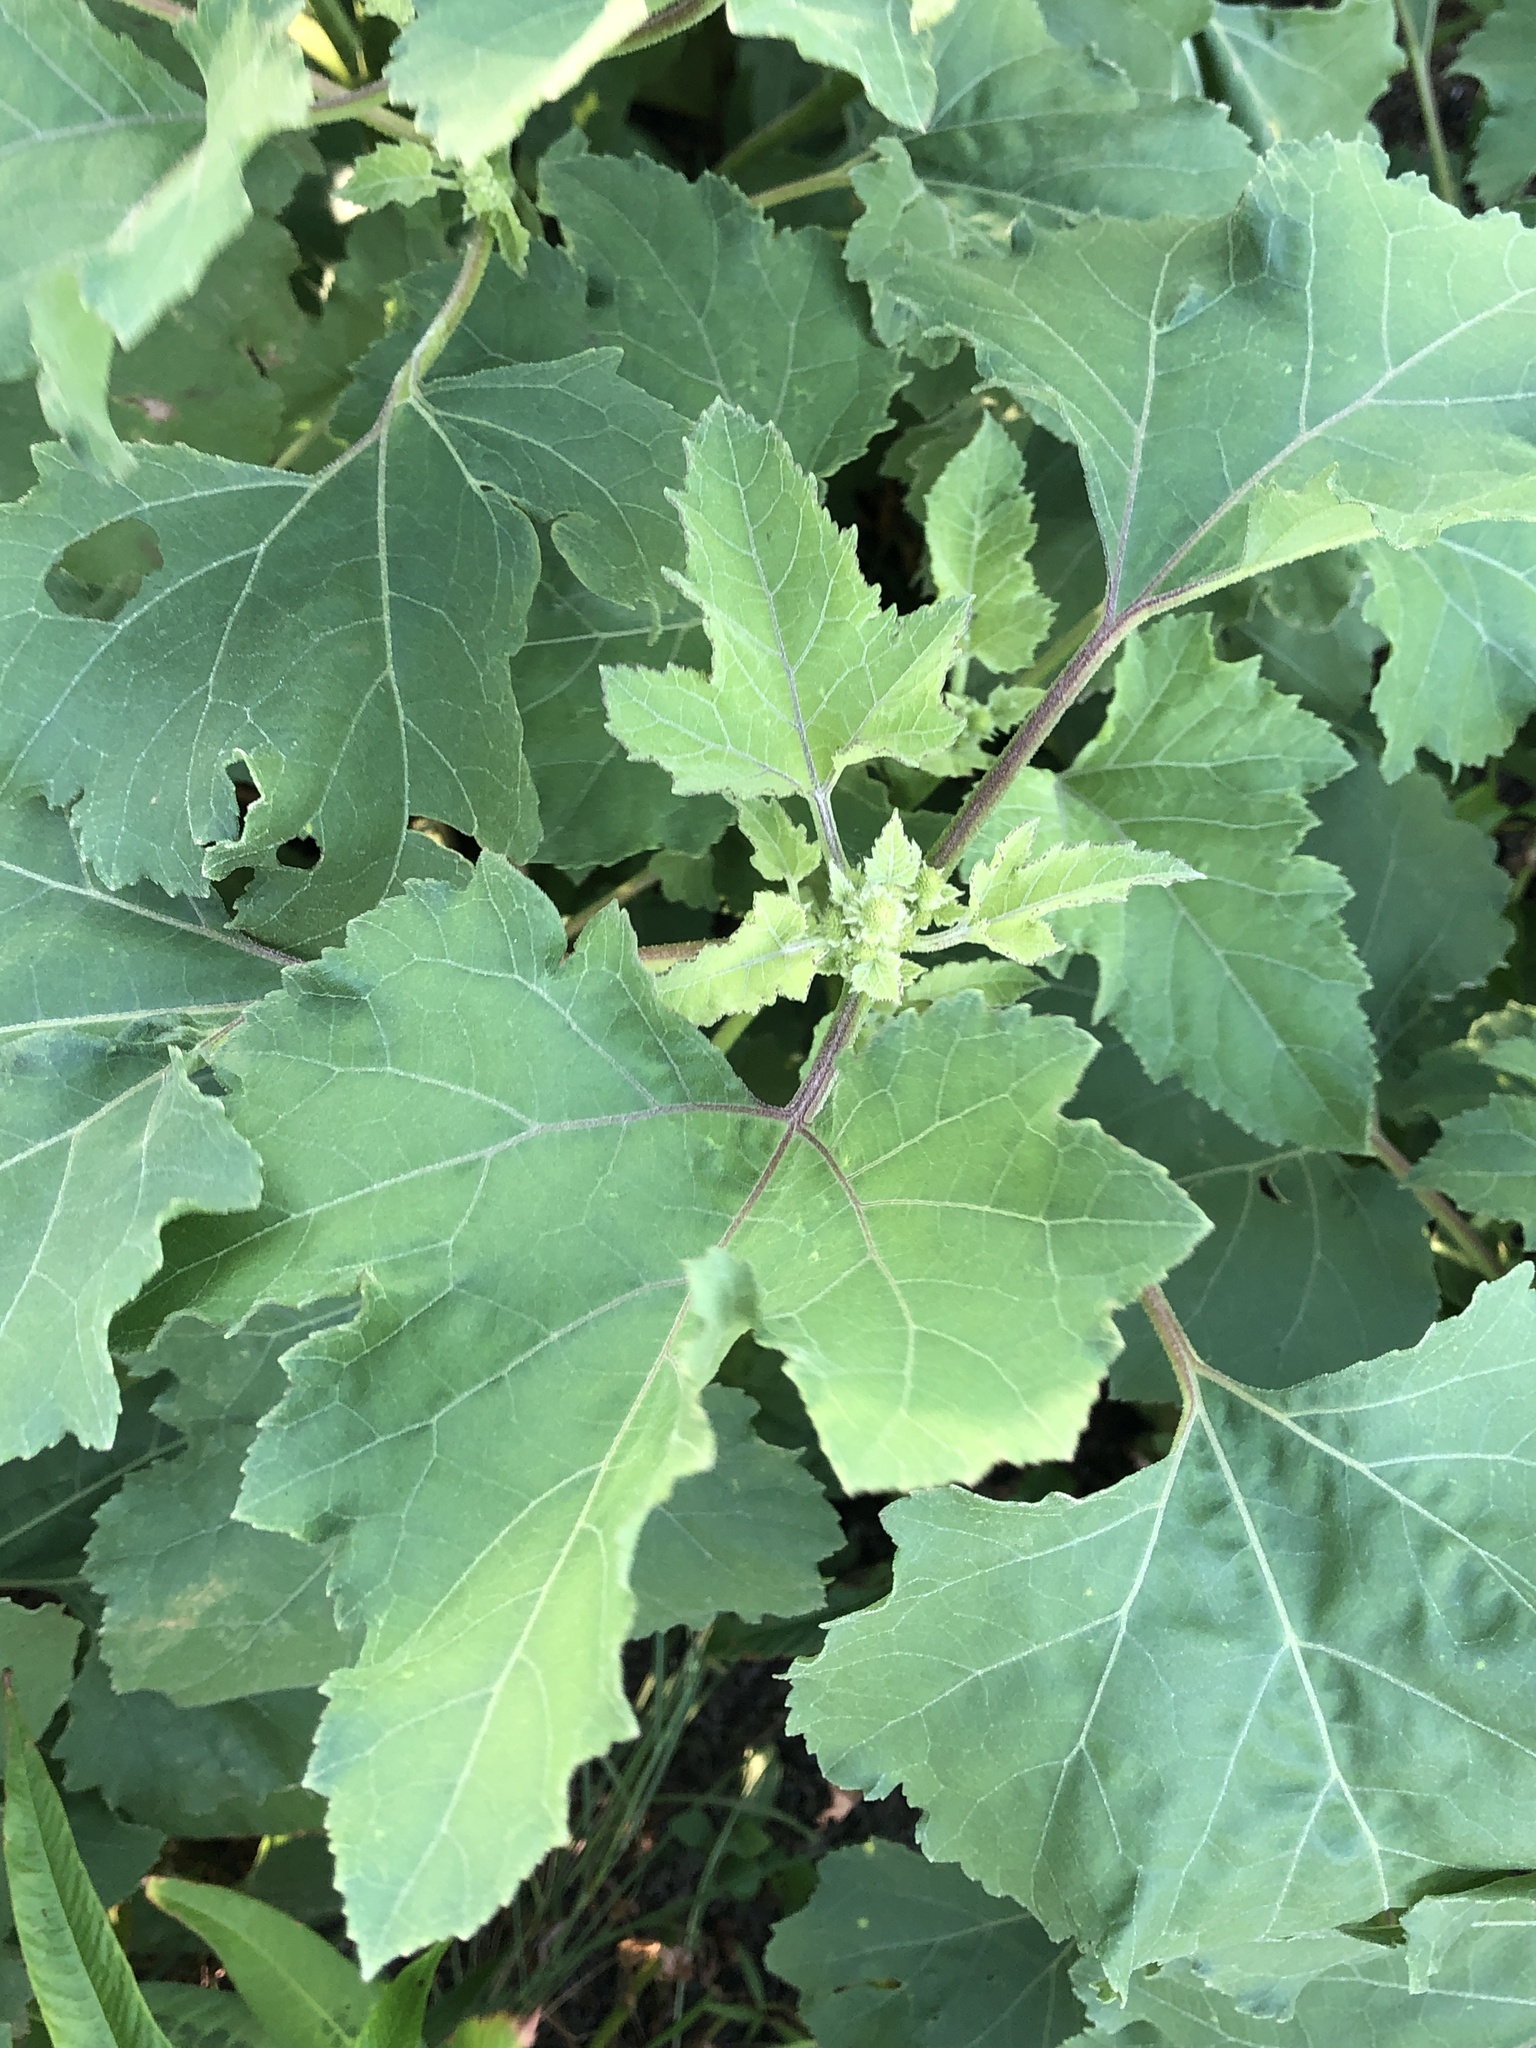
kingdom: Plantae
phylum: Tracheophyta
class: Magnoliopsida
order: Asterales
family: Asteraceae
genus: Xanthium
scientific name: Xanthium strumarium
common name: Rough cocklebur
